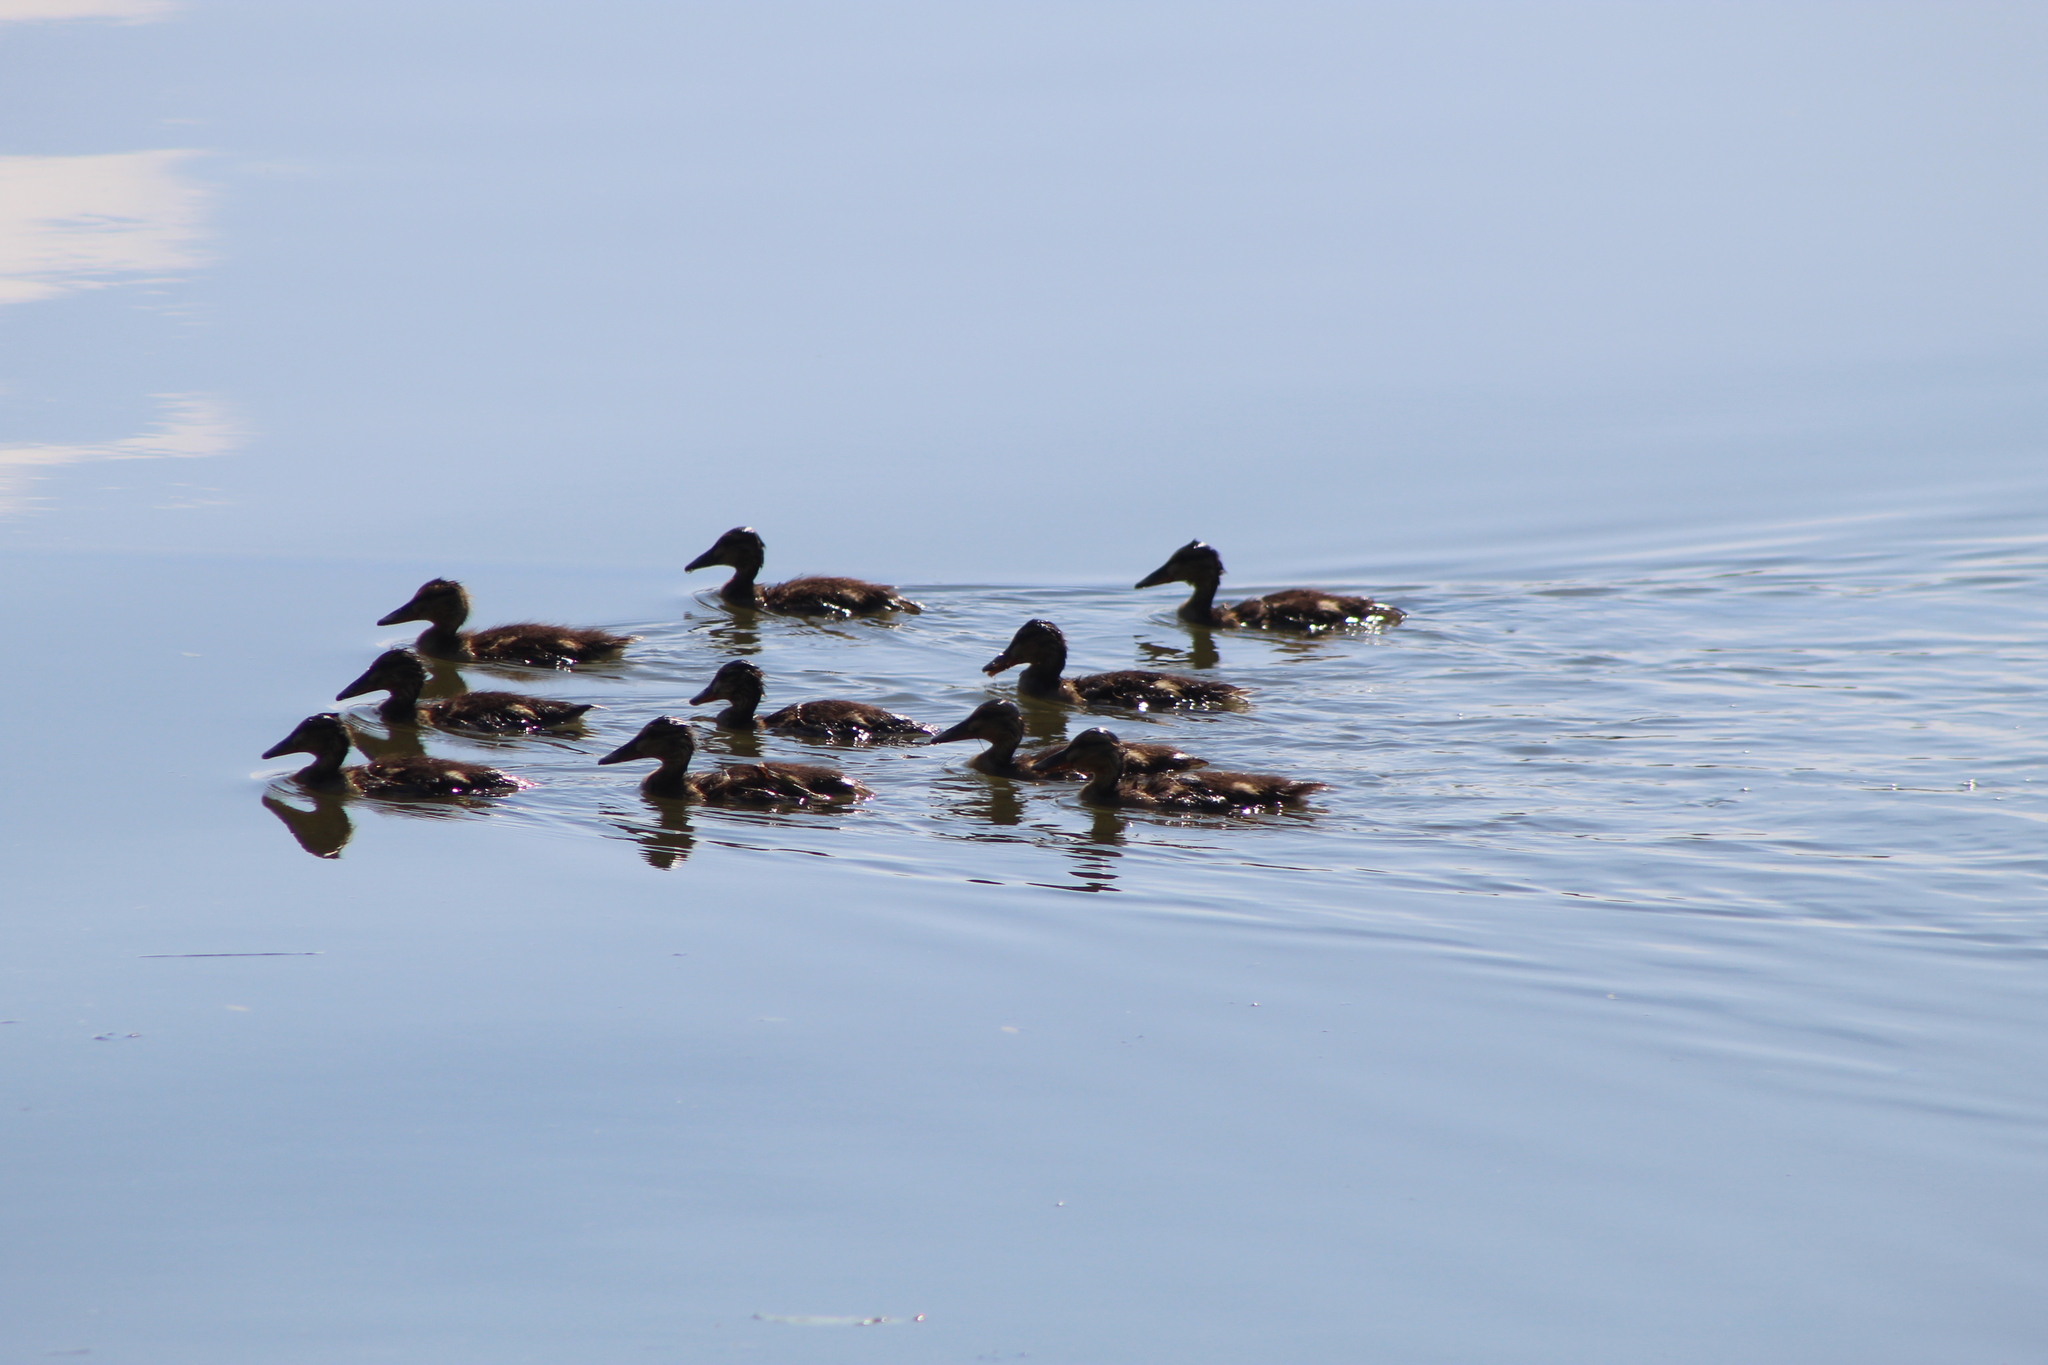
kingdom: Animalia
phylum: Chordata
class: Aves
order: Anseriformes
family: Anatidae
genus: Anas
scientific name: Anas platyrhynchos
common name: Mallard
